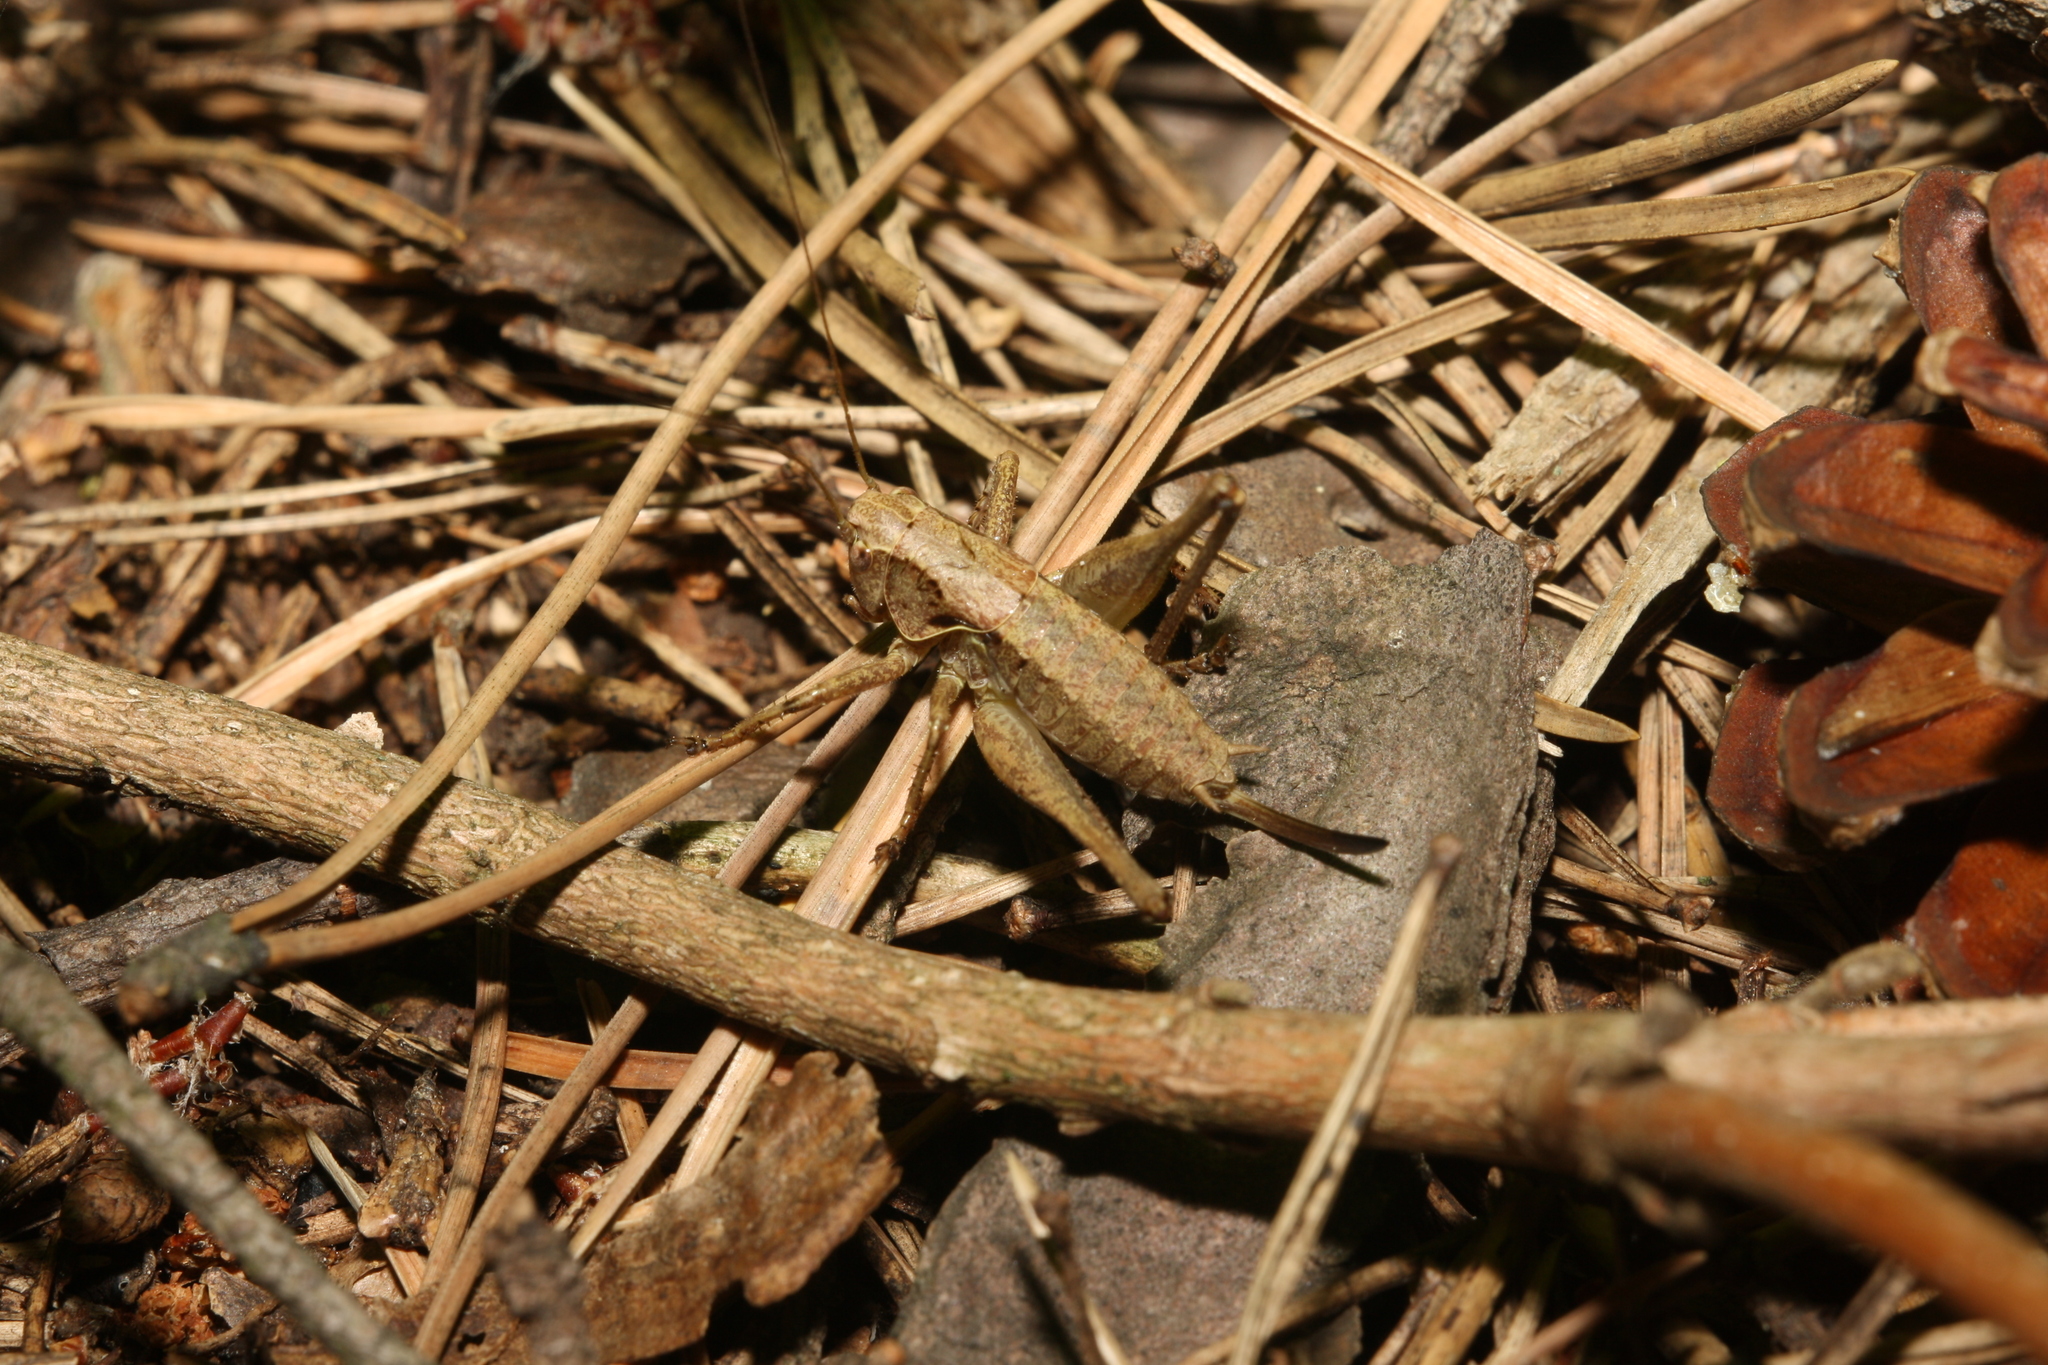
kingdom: Animalia
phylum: Arthropoda
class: Insecta
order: Orthoptera
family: Tettigoniidae
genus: Pholidoptera
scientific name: Pholidoptera griseoaptera
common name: Dark bush-cricket
